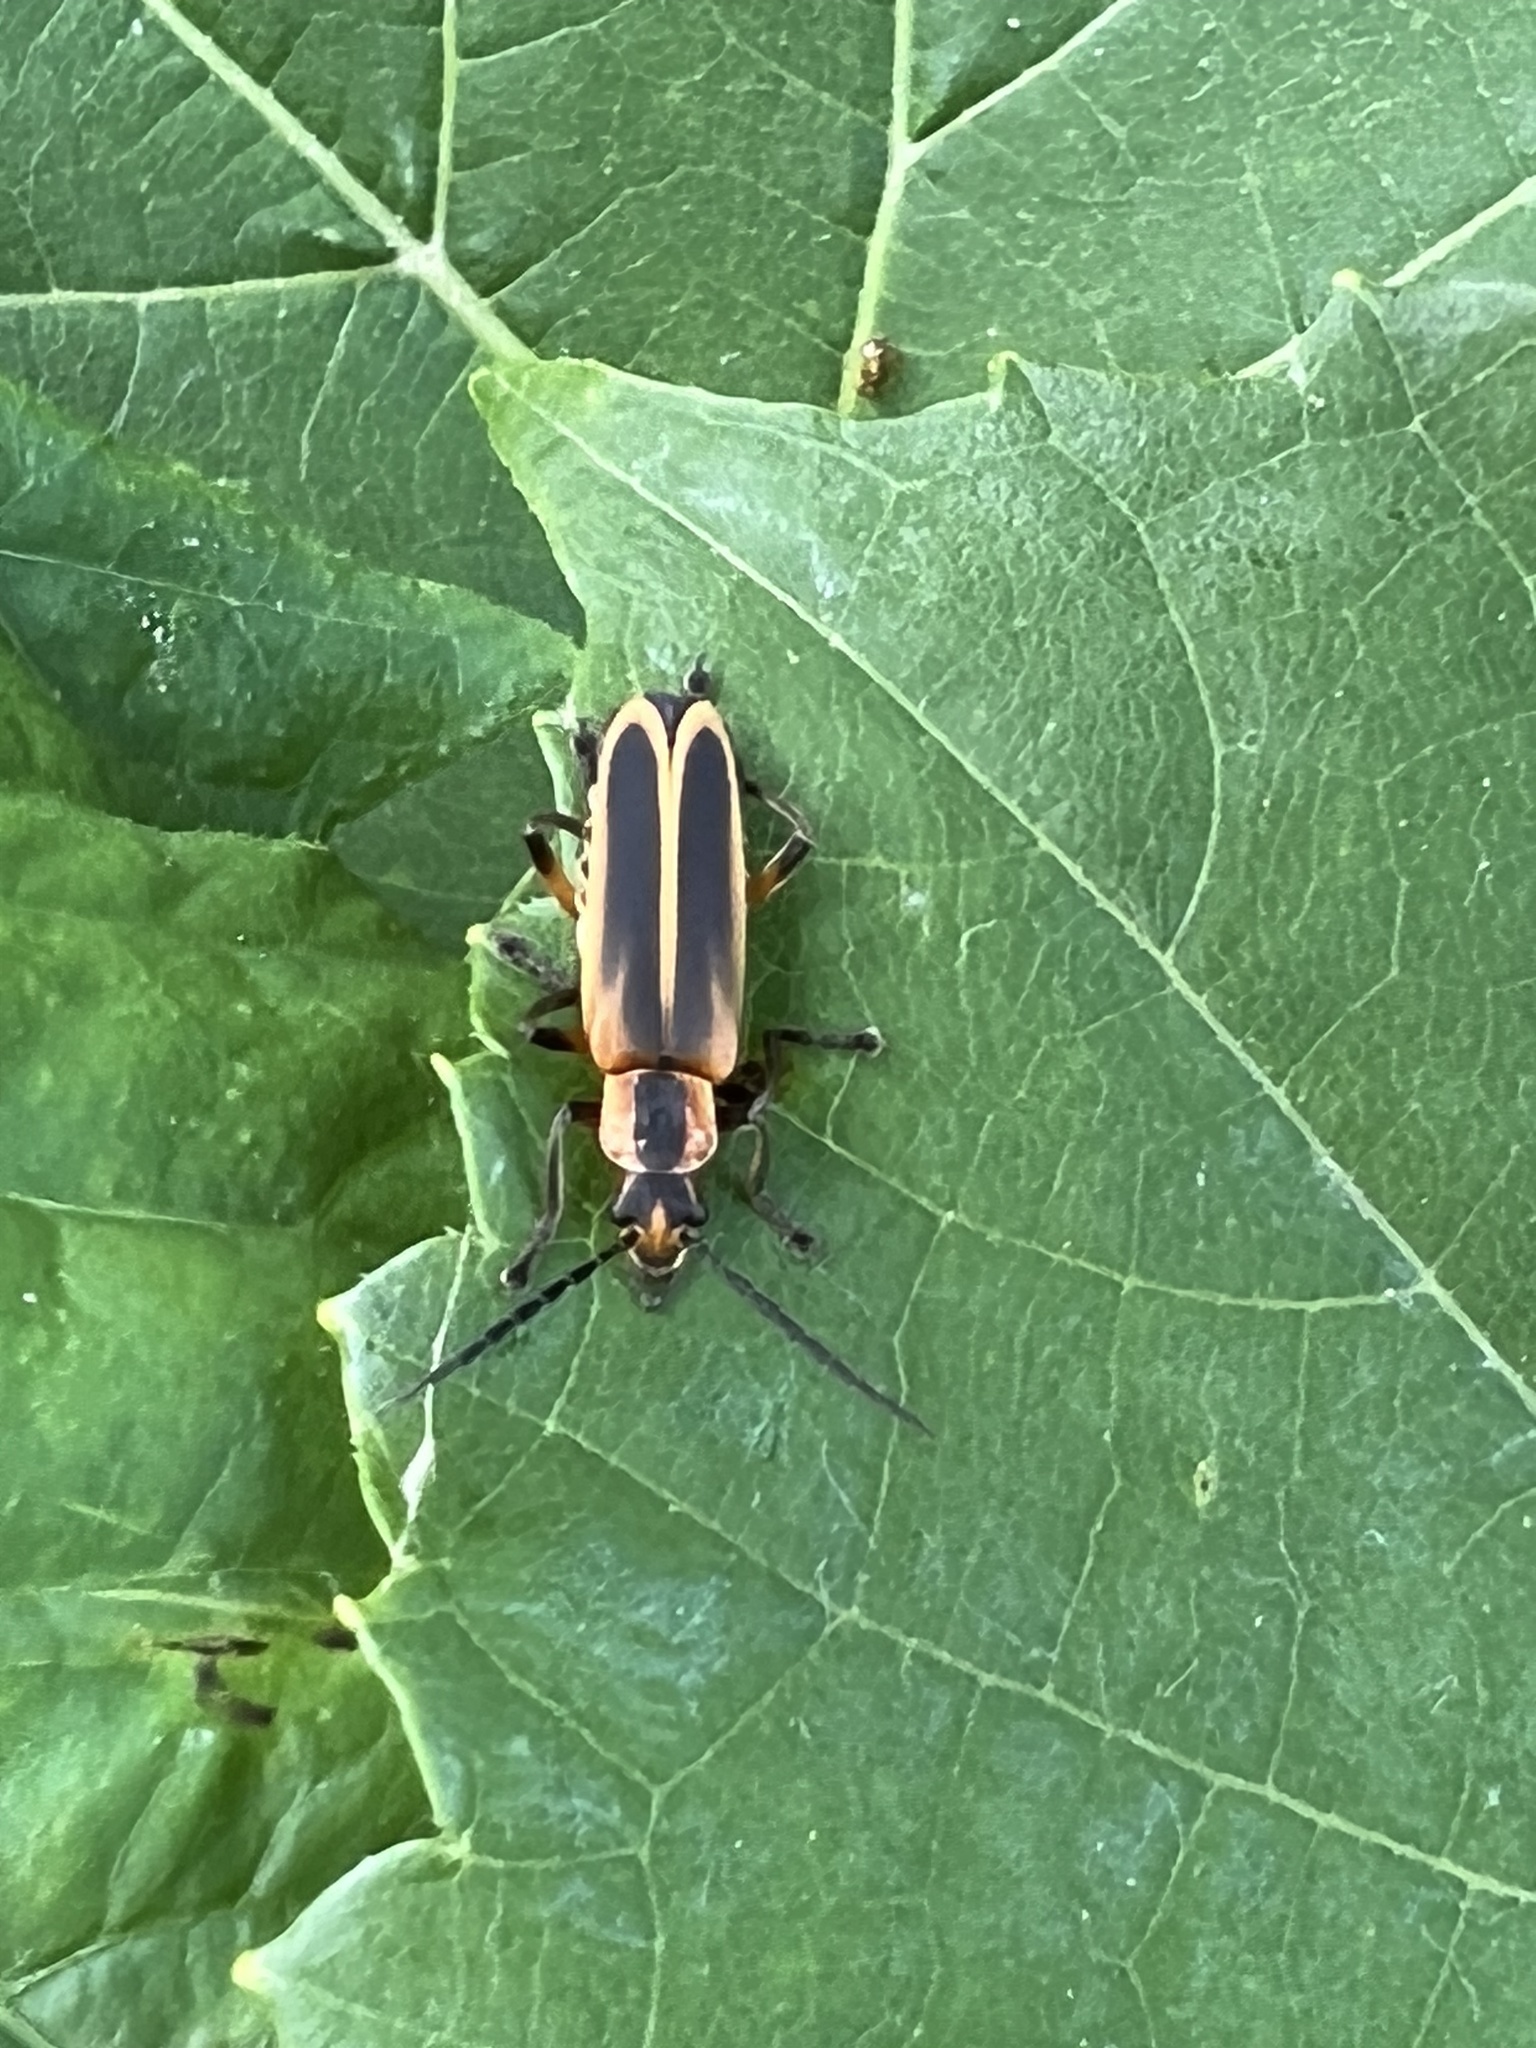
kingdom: Animalia
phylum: Arthropoda
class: Insecta
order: Coleoptera
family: Cantharidae
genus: Chauliognathus
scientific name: Chauliognathus marginatus
